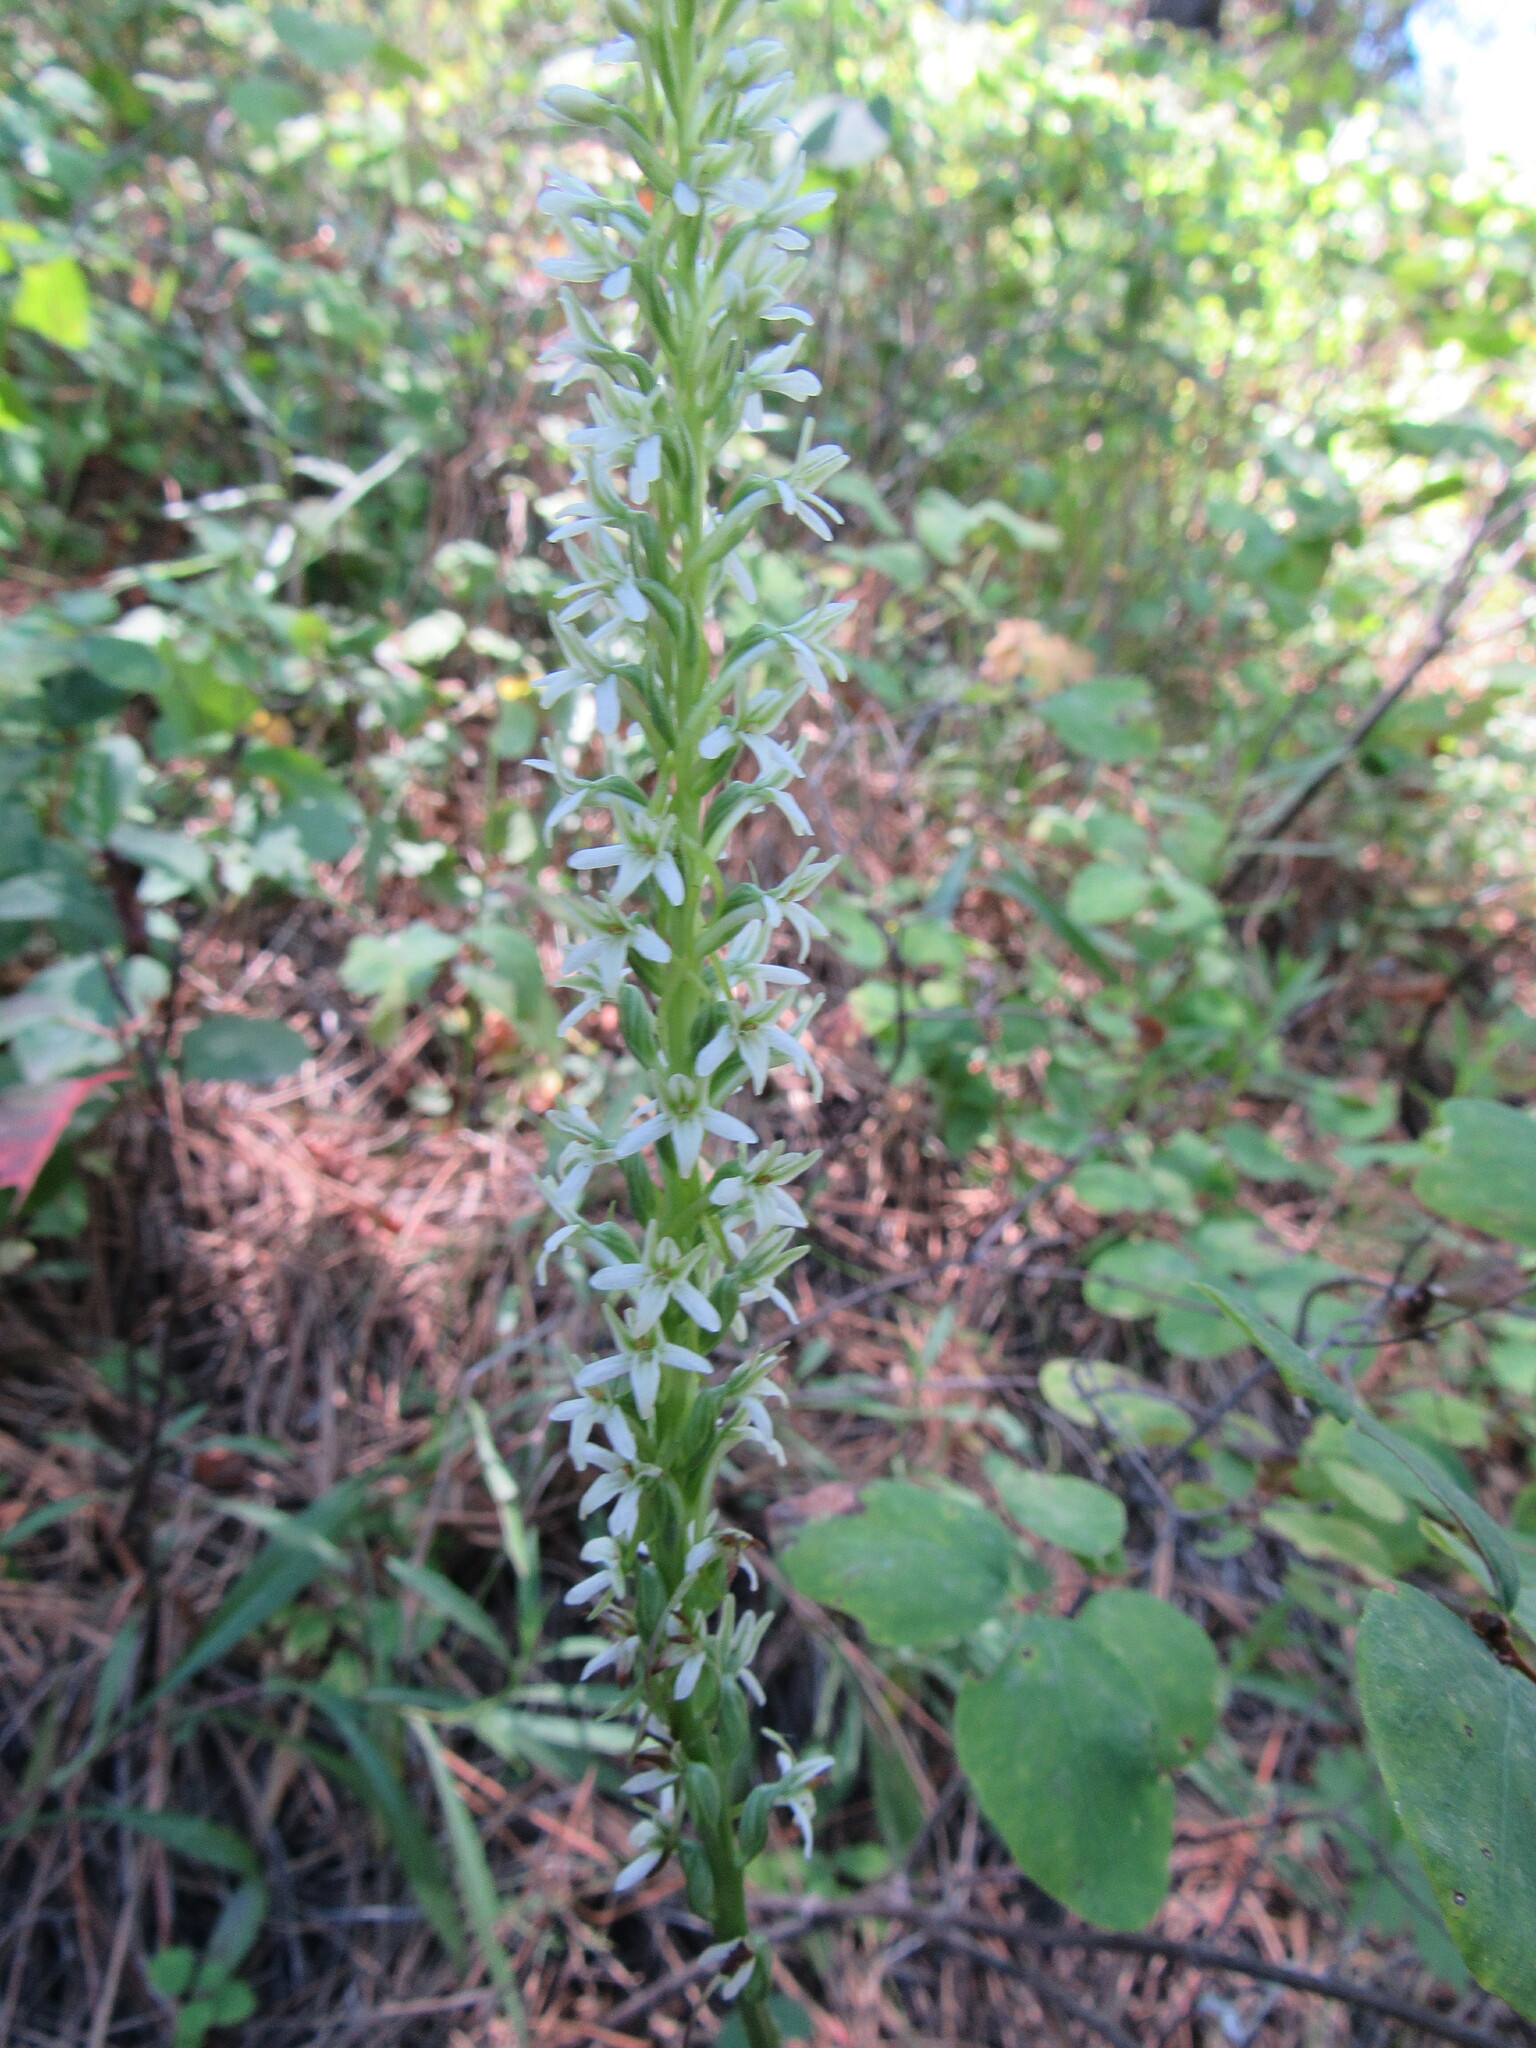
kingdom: Plantae
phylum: Tracheophyta
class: Liliopsida
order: Asparagales
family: Orchidaceae
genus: Platanthera
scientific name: Platanthera elegans
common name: Coast piperia
